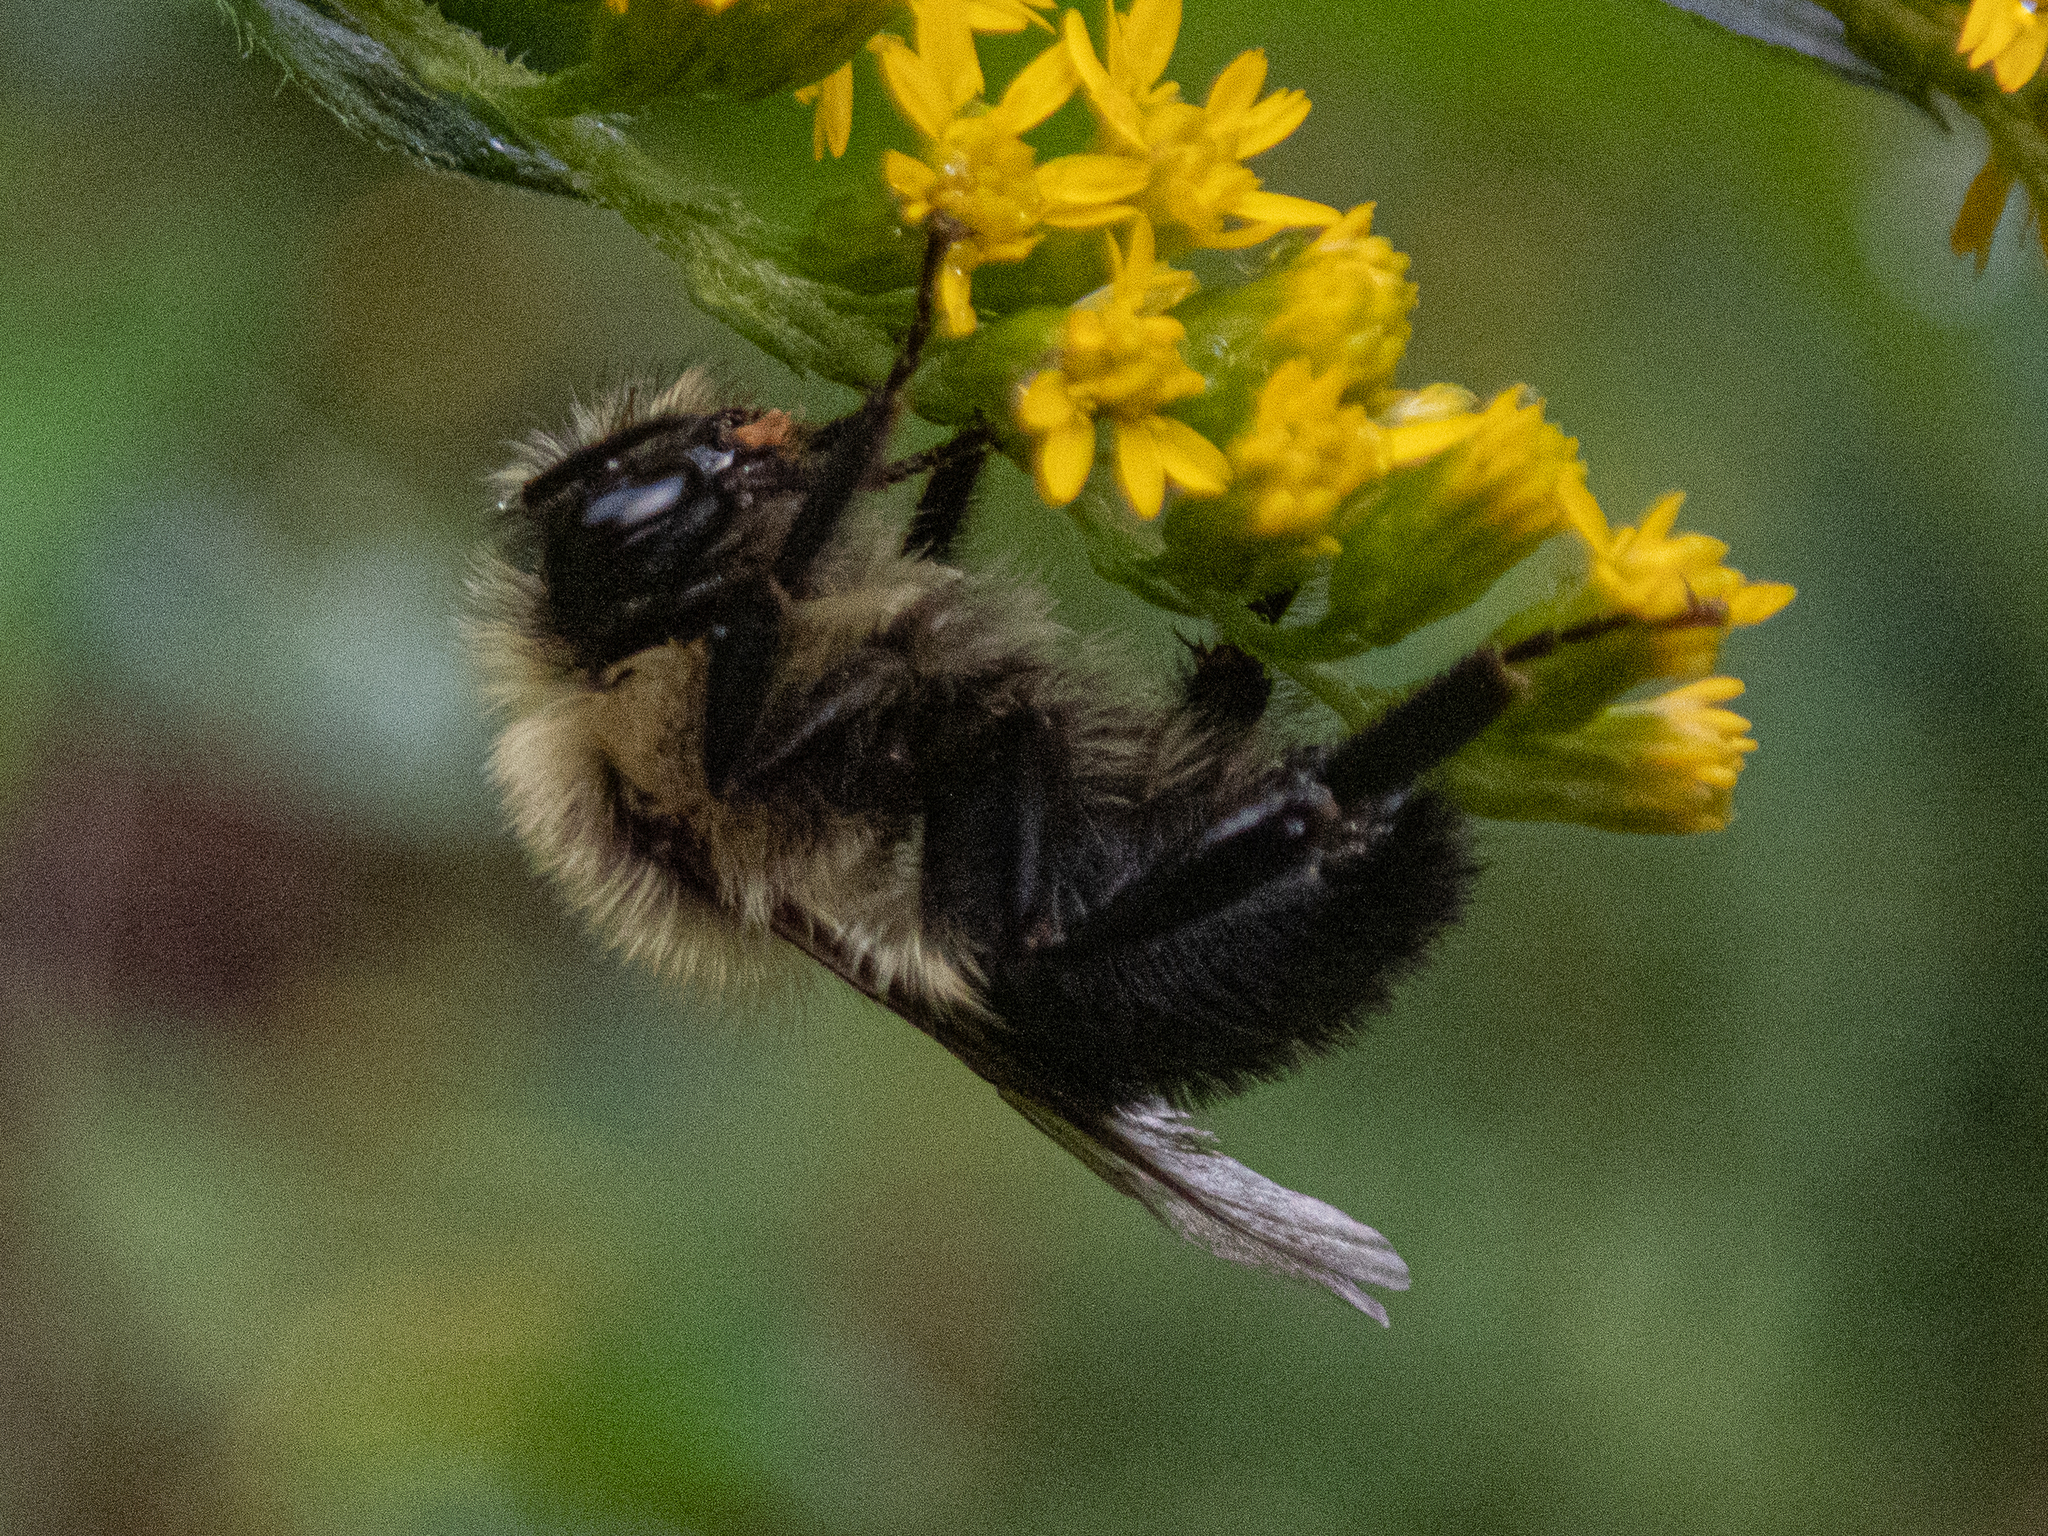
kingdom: Animalia
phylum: Arthropoda
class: Insecta
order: Hymenoptera
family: Apidae
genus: Bombus
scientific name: Bombus impatiens
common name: Common eastern bumble bee
